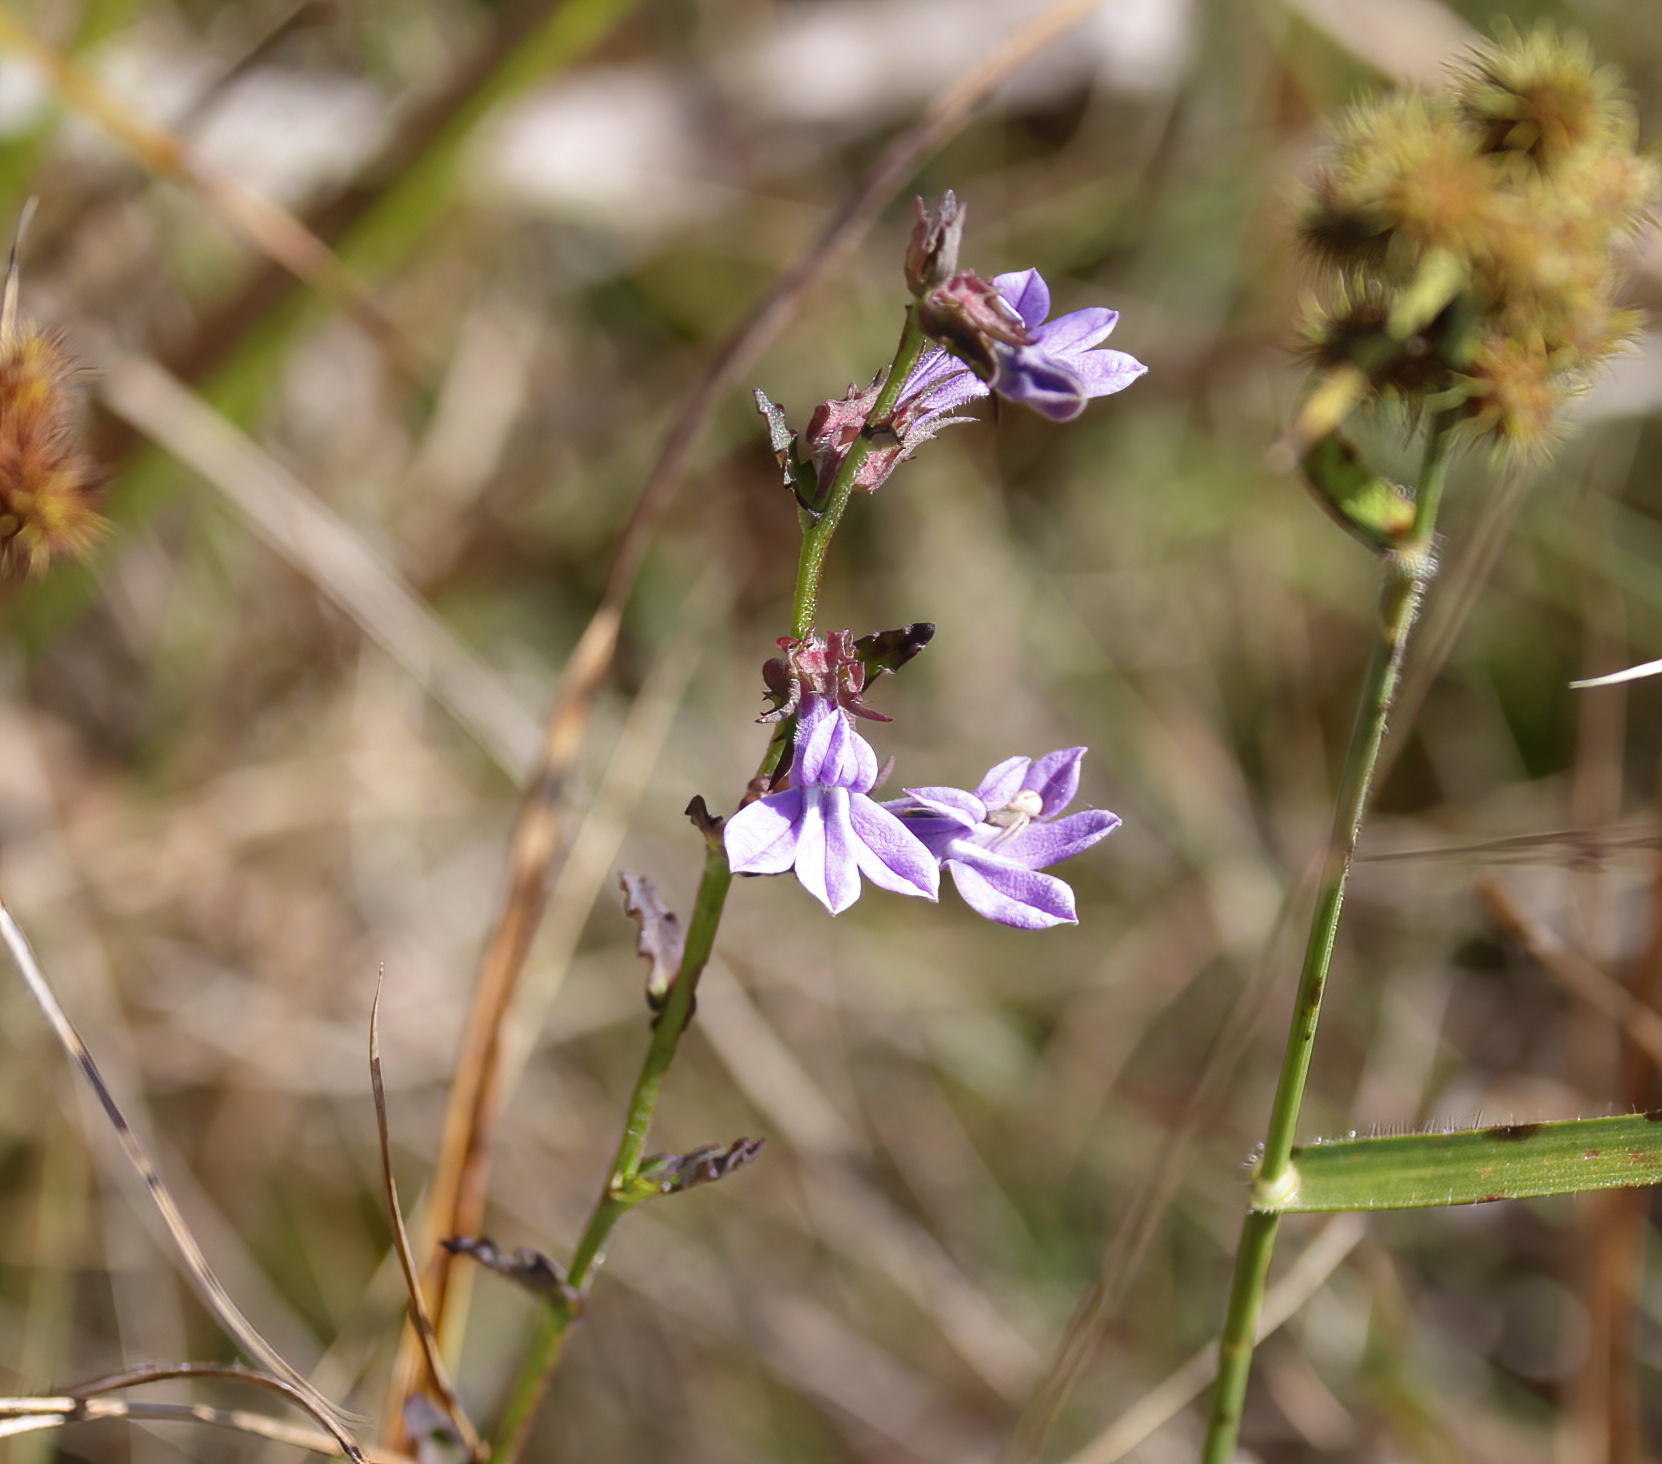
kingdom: Plantae
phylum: Tracheophyta
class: Magnoliopsida
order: Asterales
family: Campanulaceae
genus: Lobelia
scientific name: Lobelia brevifolia
